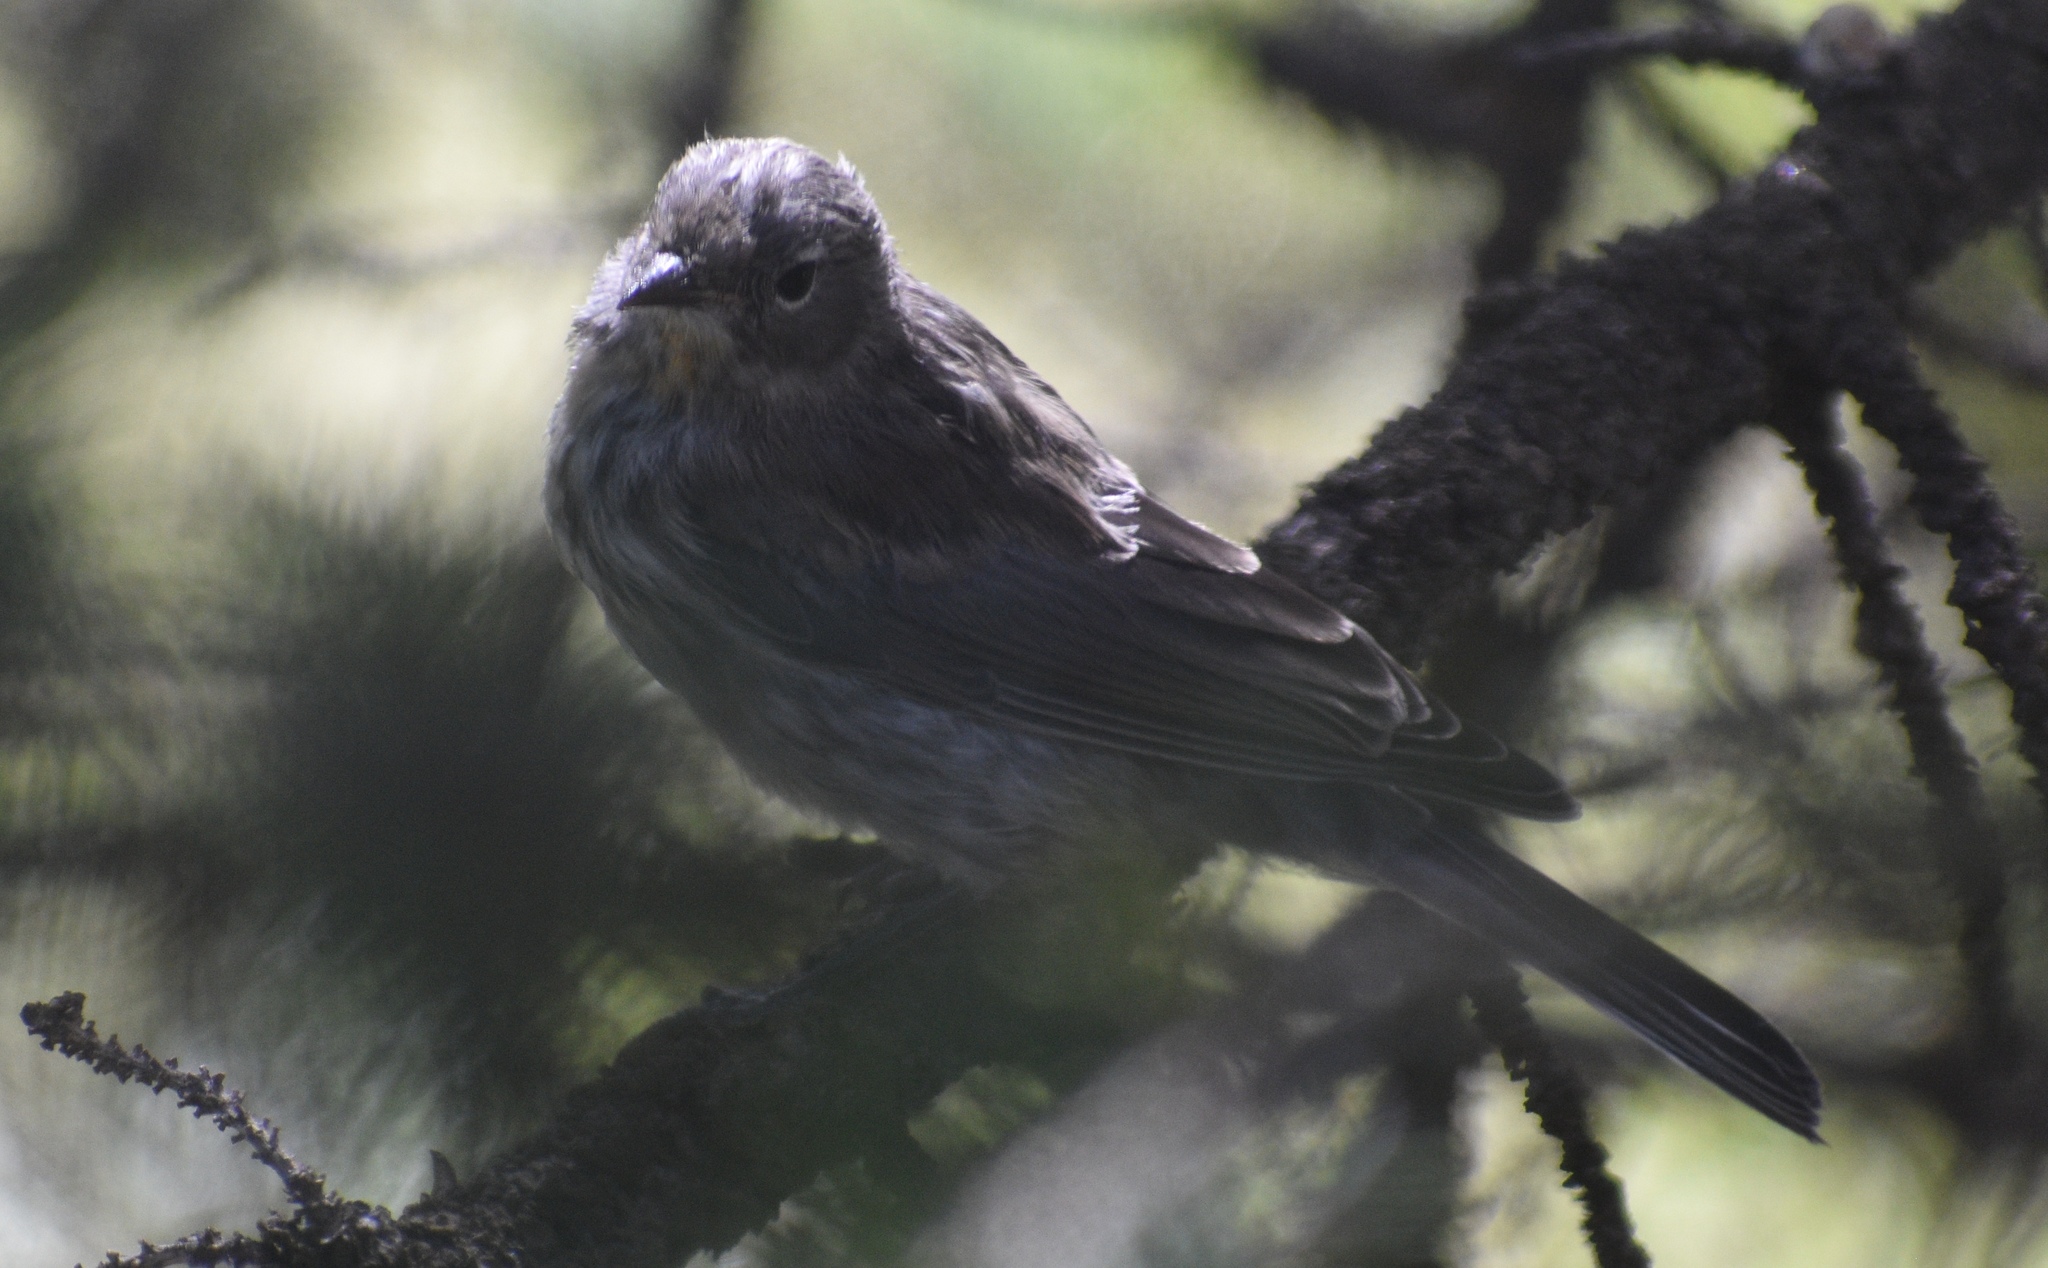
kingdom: Animalia
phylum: Chordata
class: Aves
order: Passeriformes
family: Parulidae
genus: Setophaga
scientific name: Setophaga coronata
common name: Myrtle warbler
